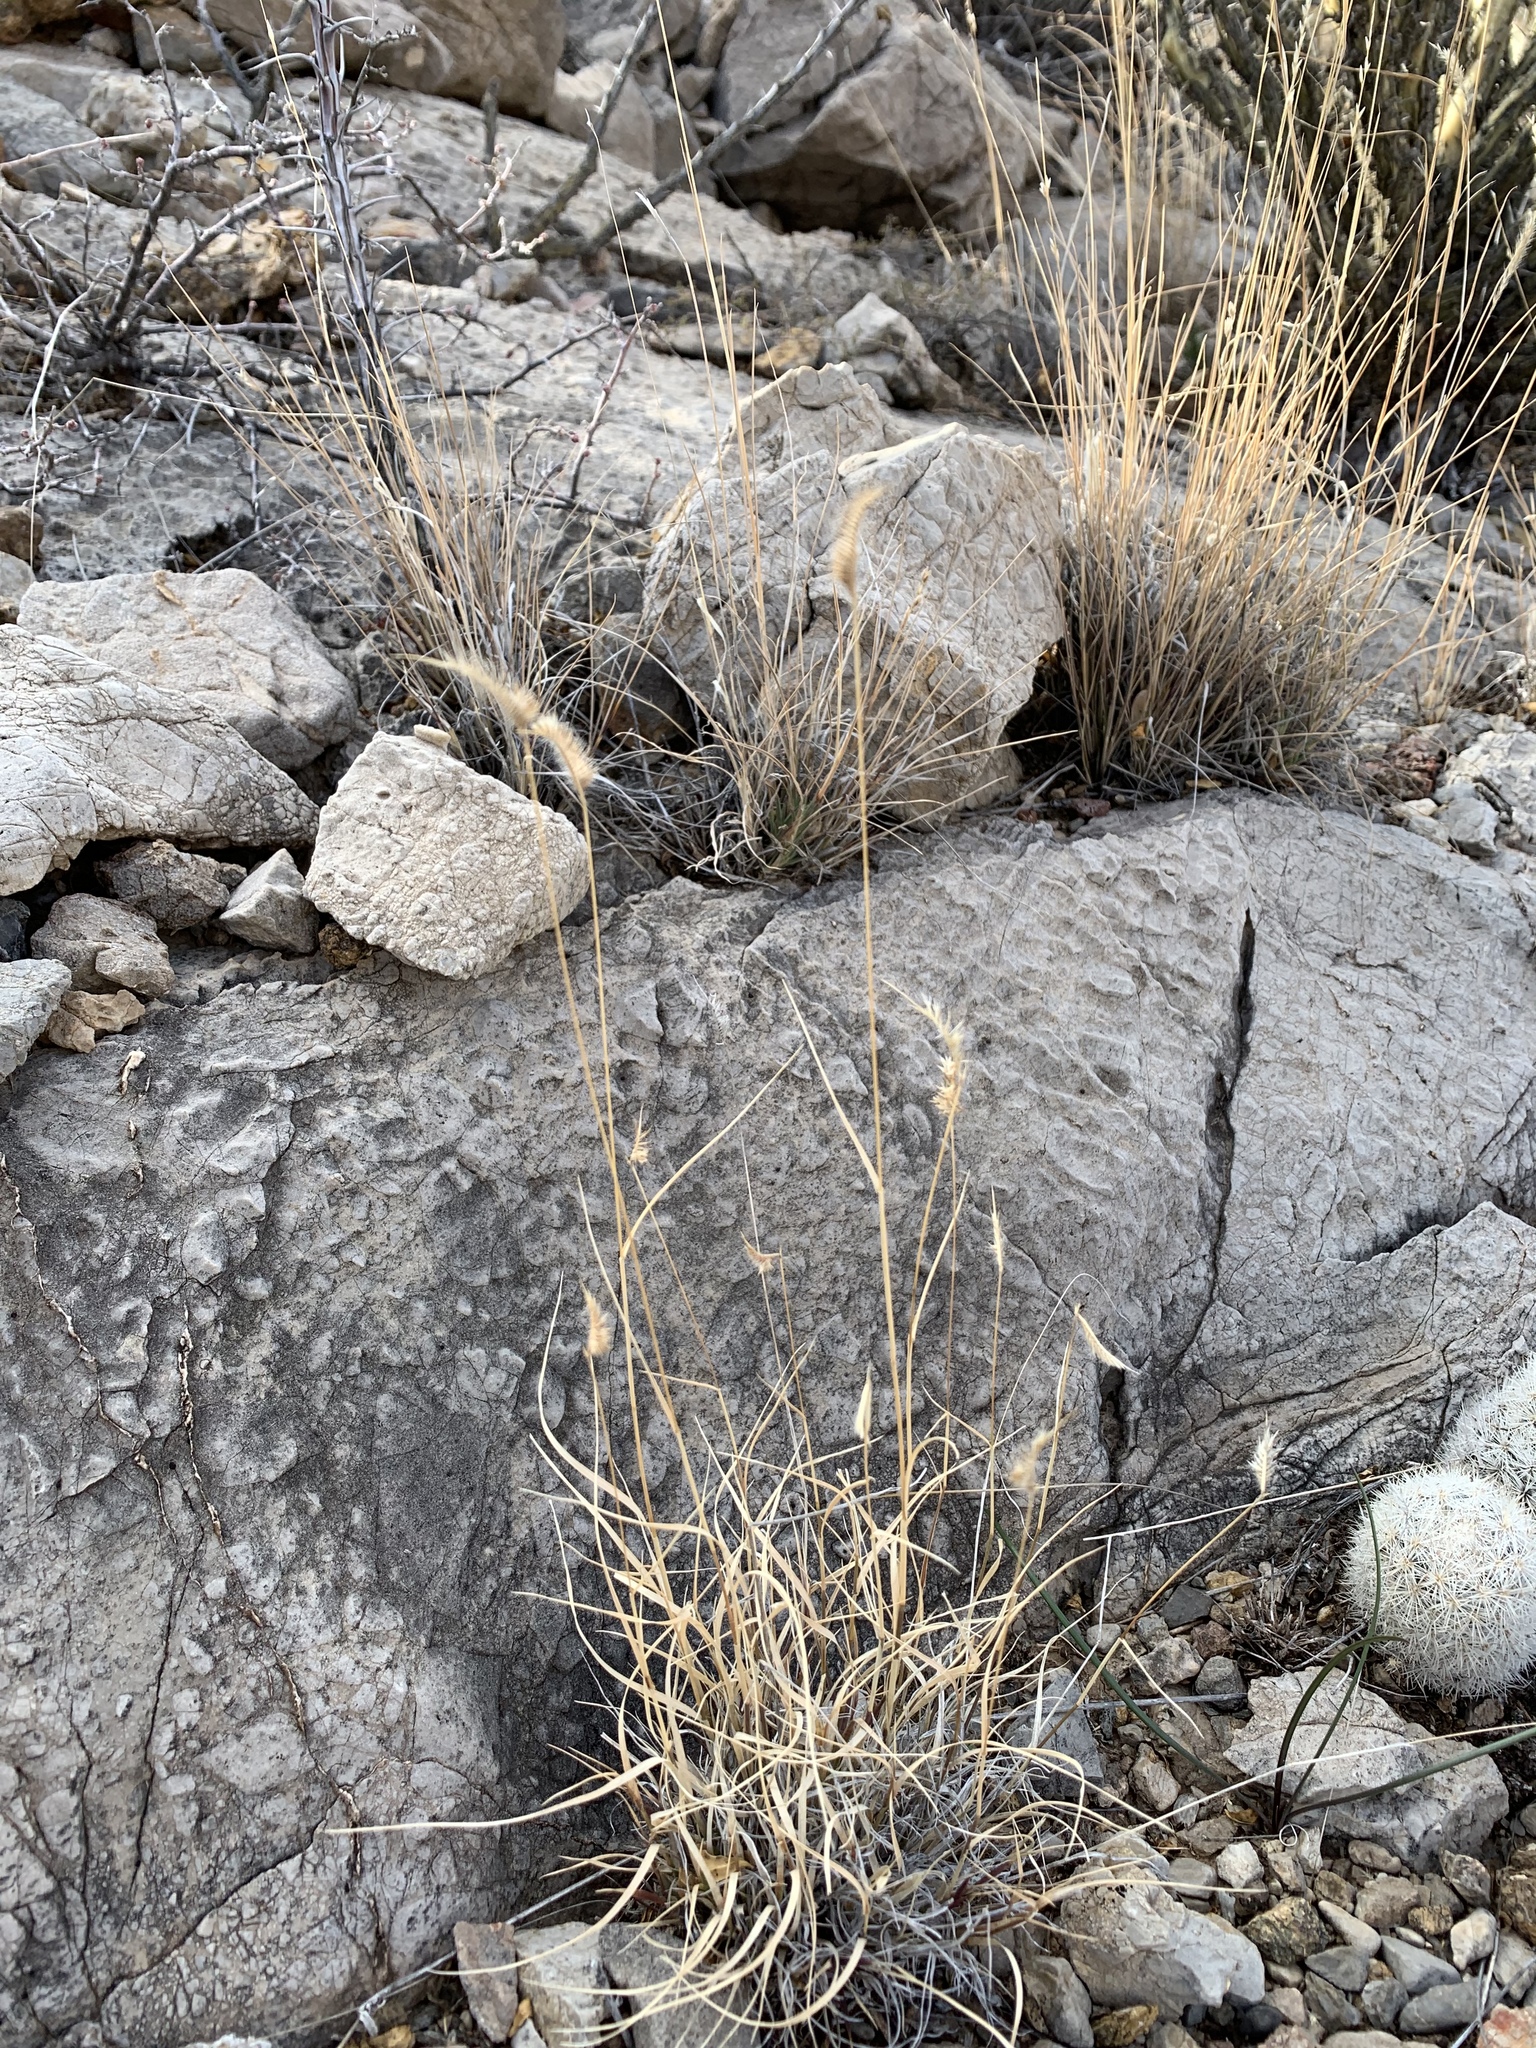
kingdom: Plantae
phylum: Tracheophyta
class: Liliopsida
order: Poales
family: Poaceae
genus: Bouteloua
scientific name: Bouteloua hirsuta
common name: Hairy grama
